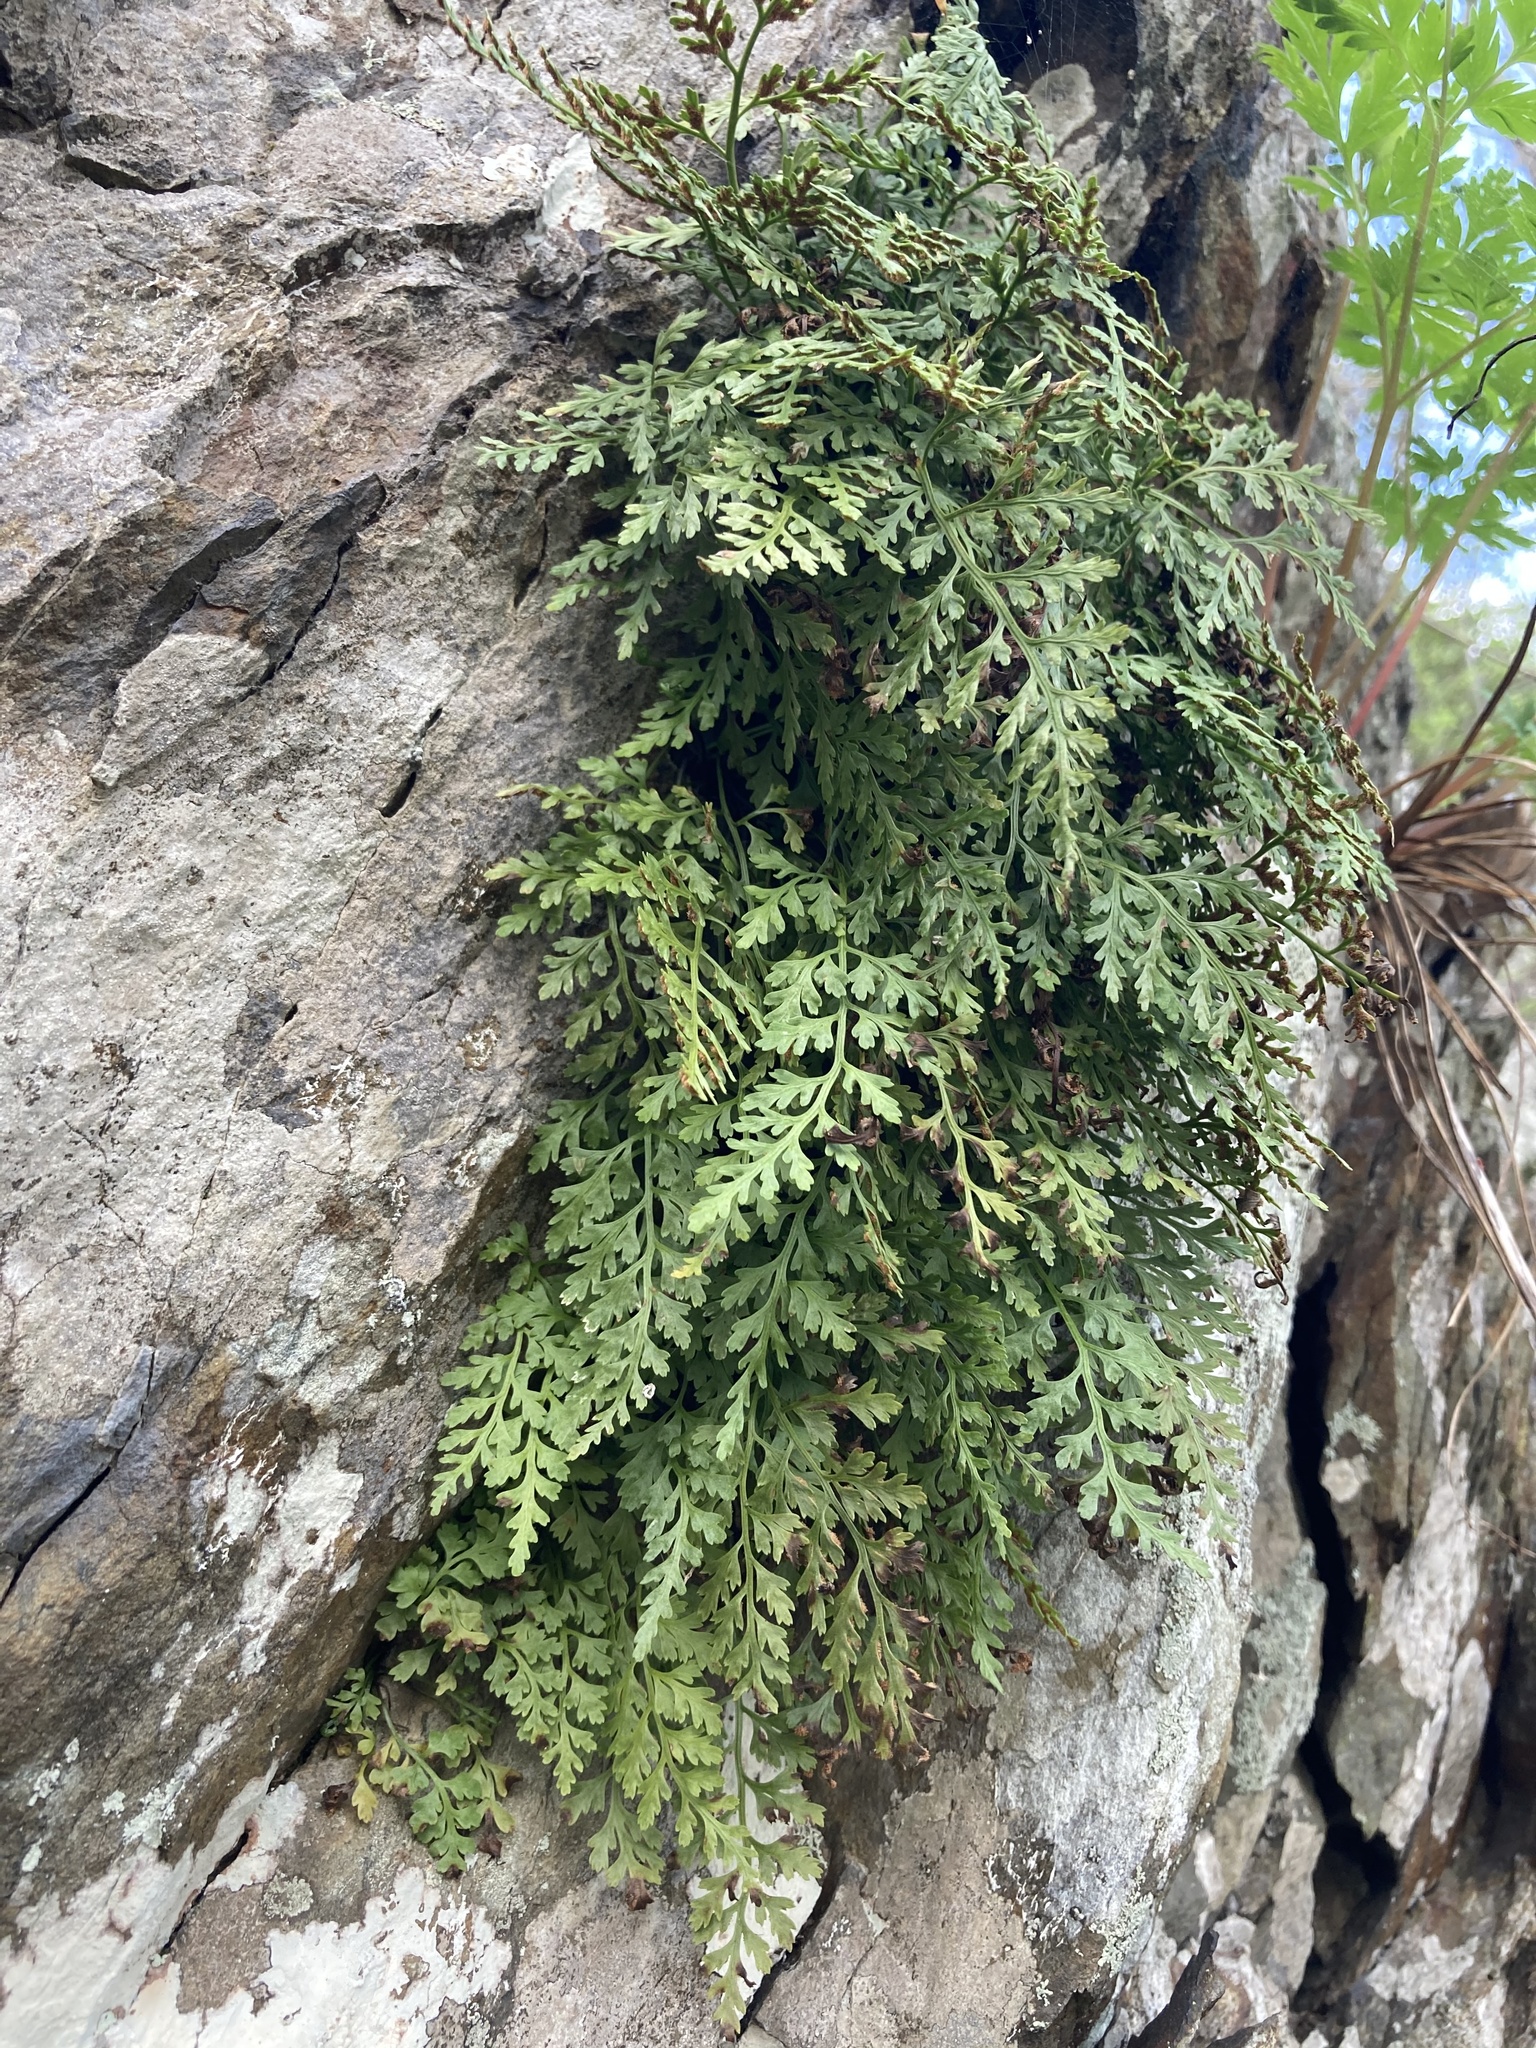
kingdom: Plantae
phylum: Tracheophyta
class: Polypodiopsida
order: Polypodiales
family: Aspleniaceae
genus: Asplenium
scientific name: Asplenium montanum
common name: Mountain spleenwort
